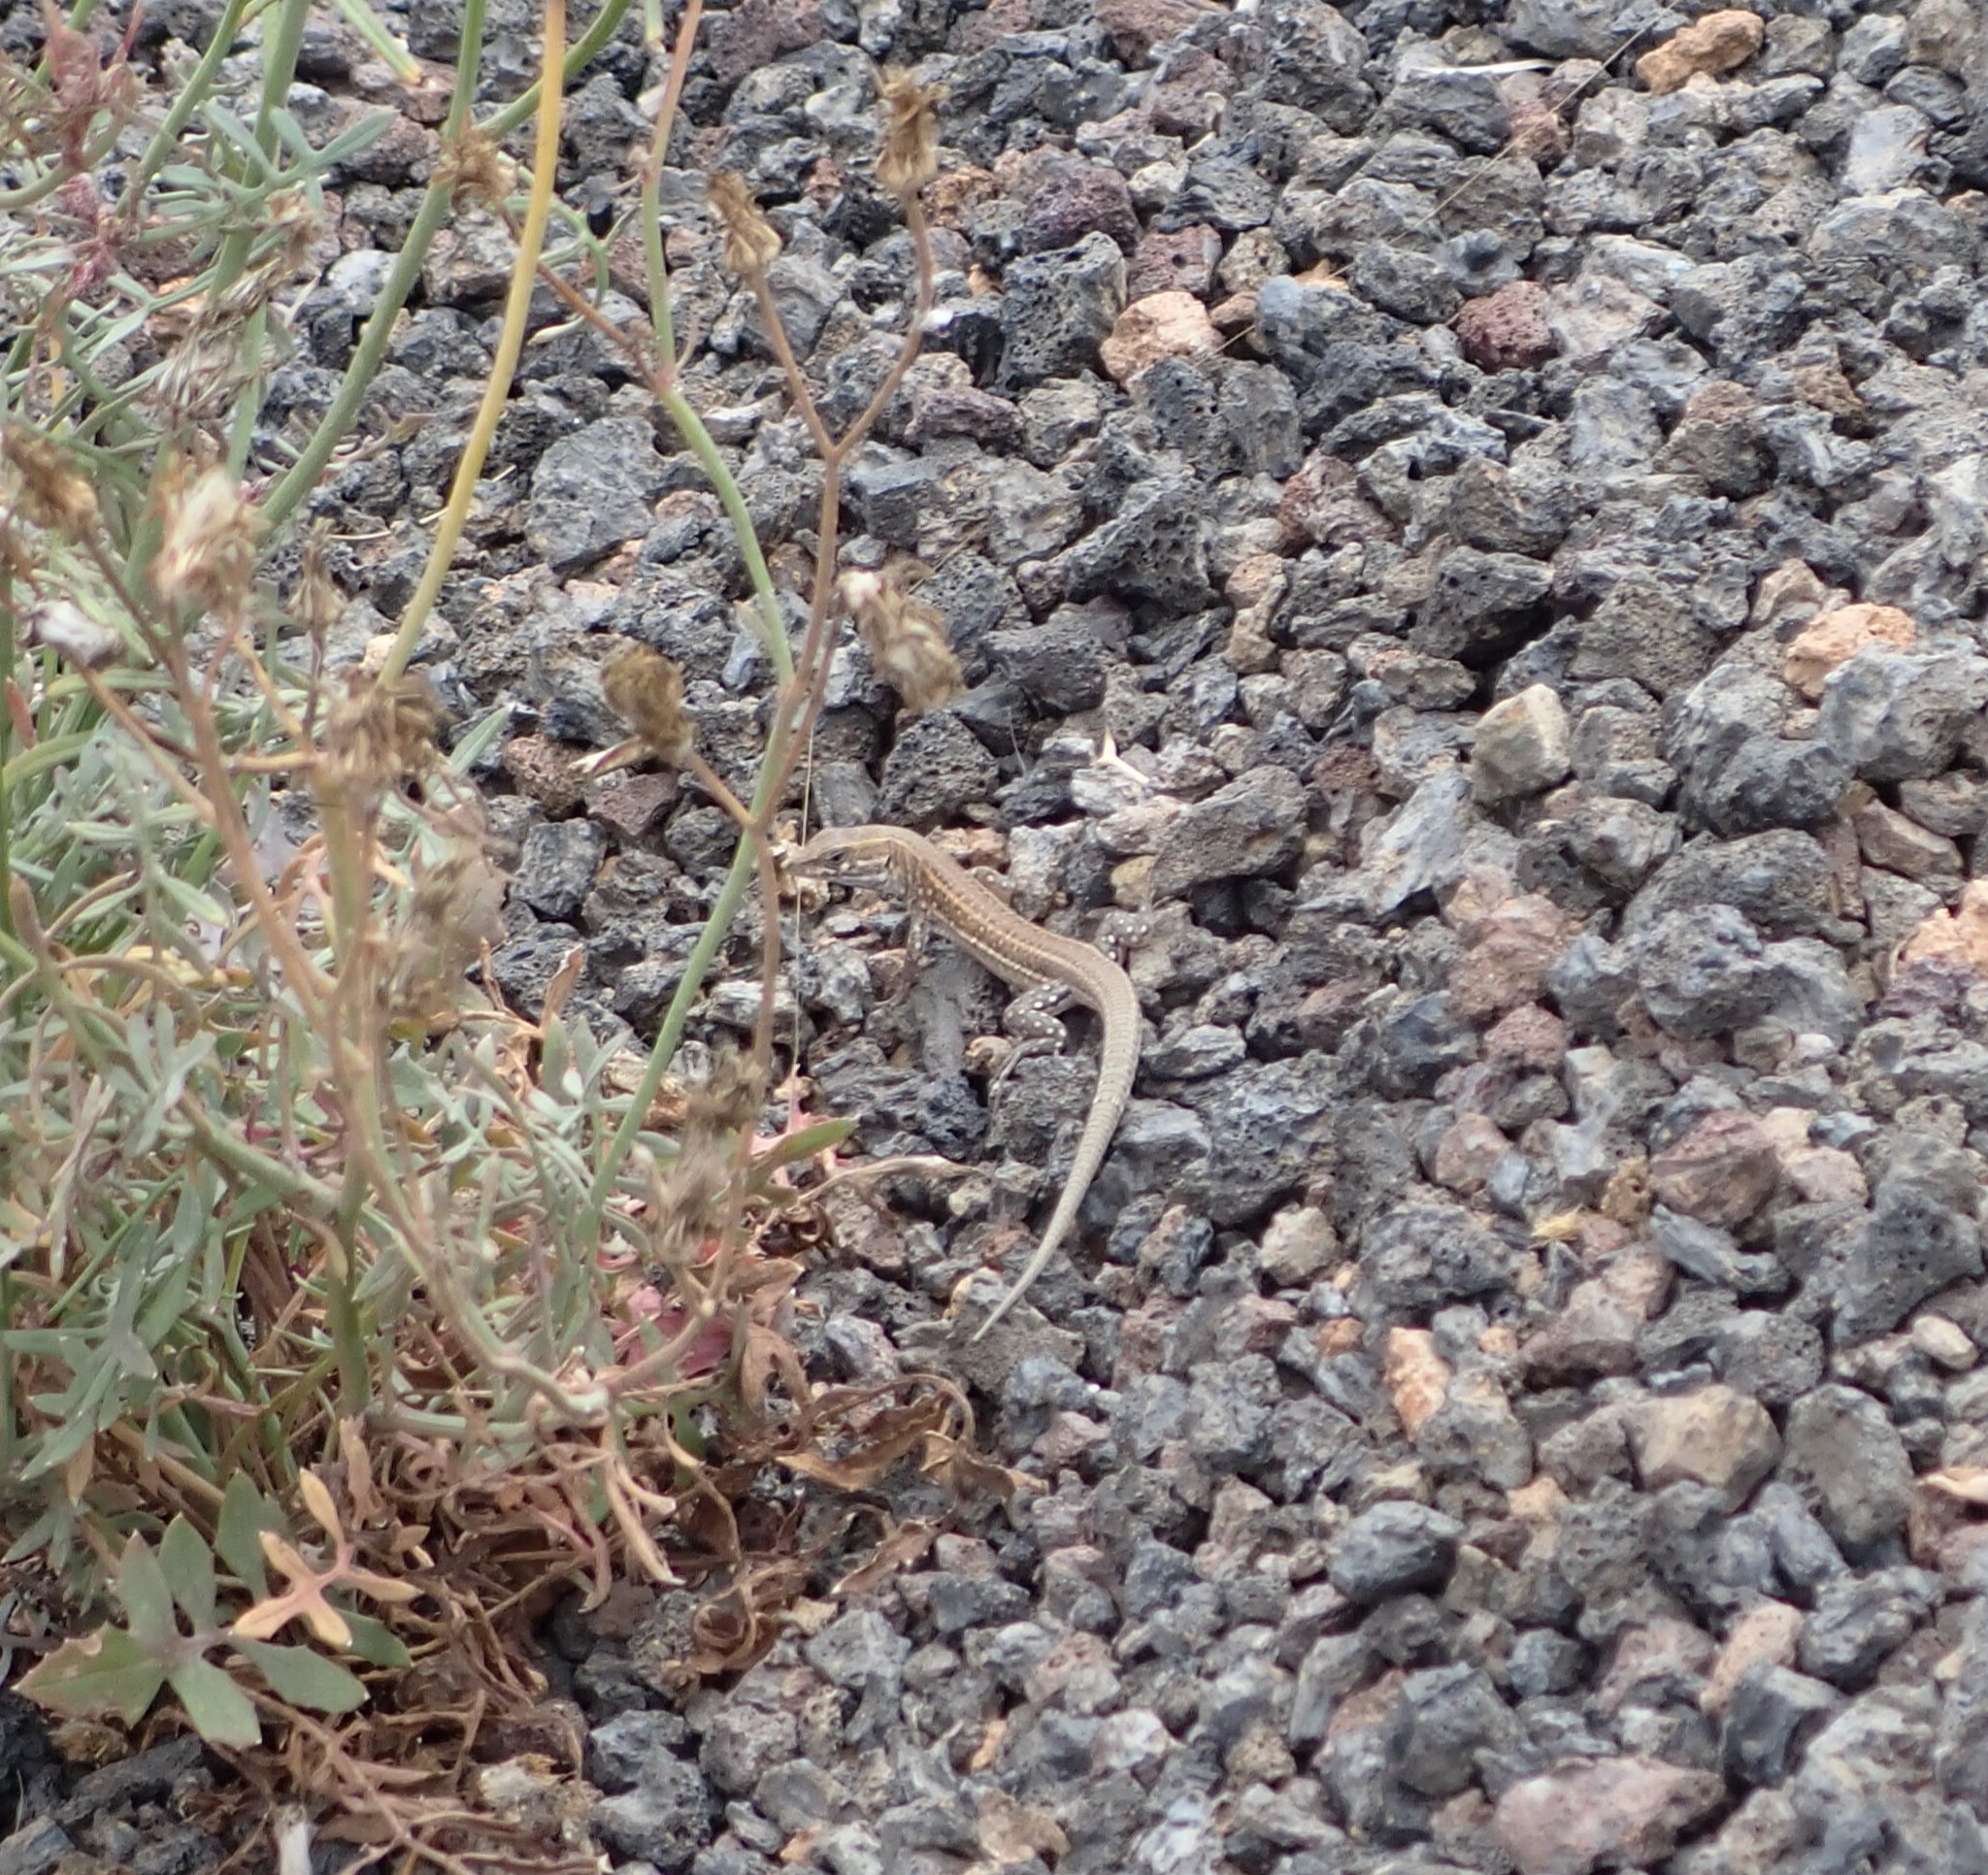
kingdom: Animalia
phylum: Chordata
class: Squamata
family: Lacertidae
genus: Gallotia
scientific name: Gallotia atlantica
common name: Atlantic lizard
